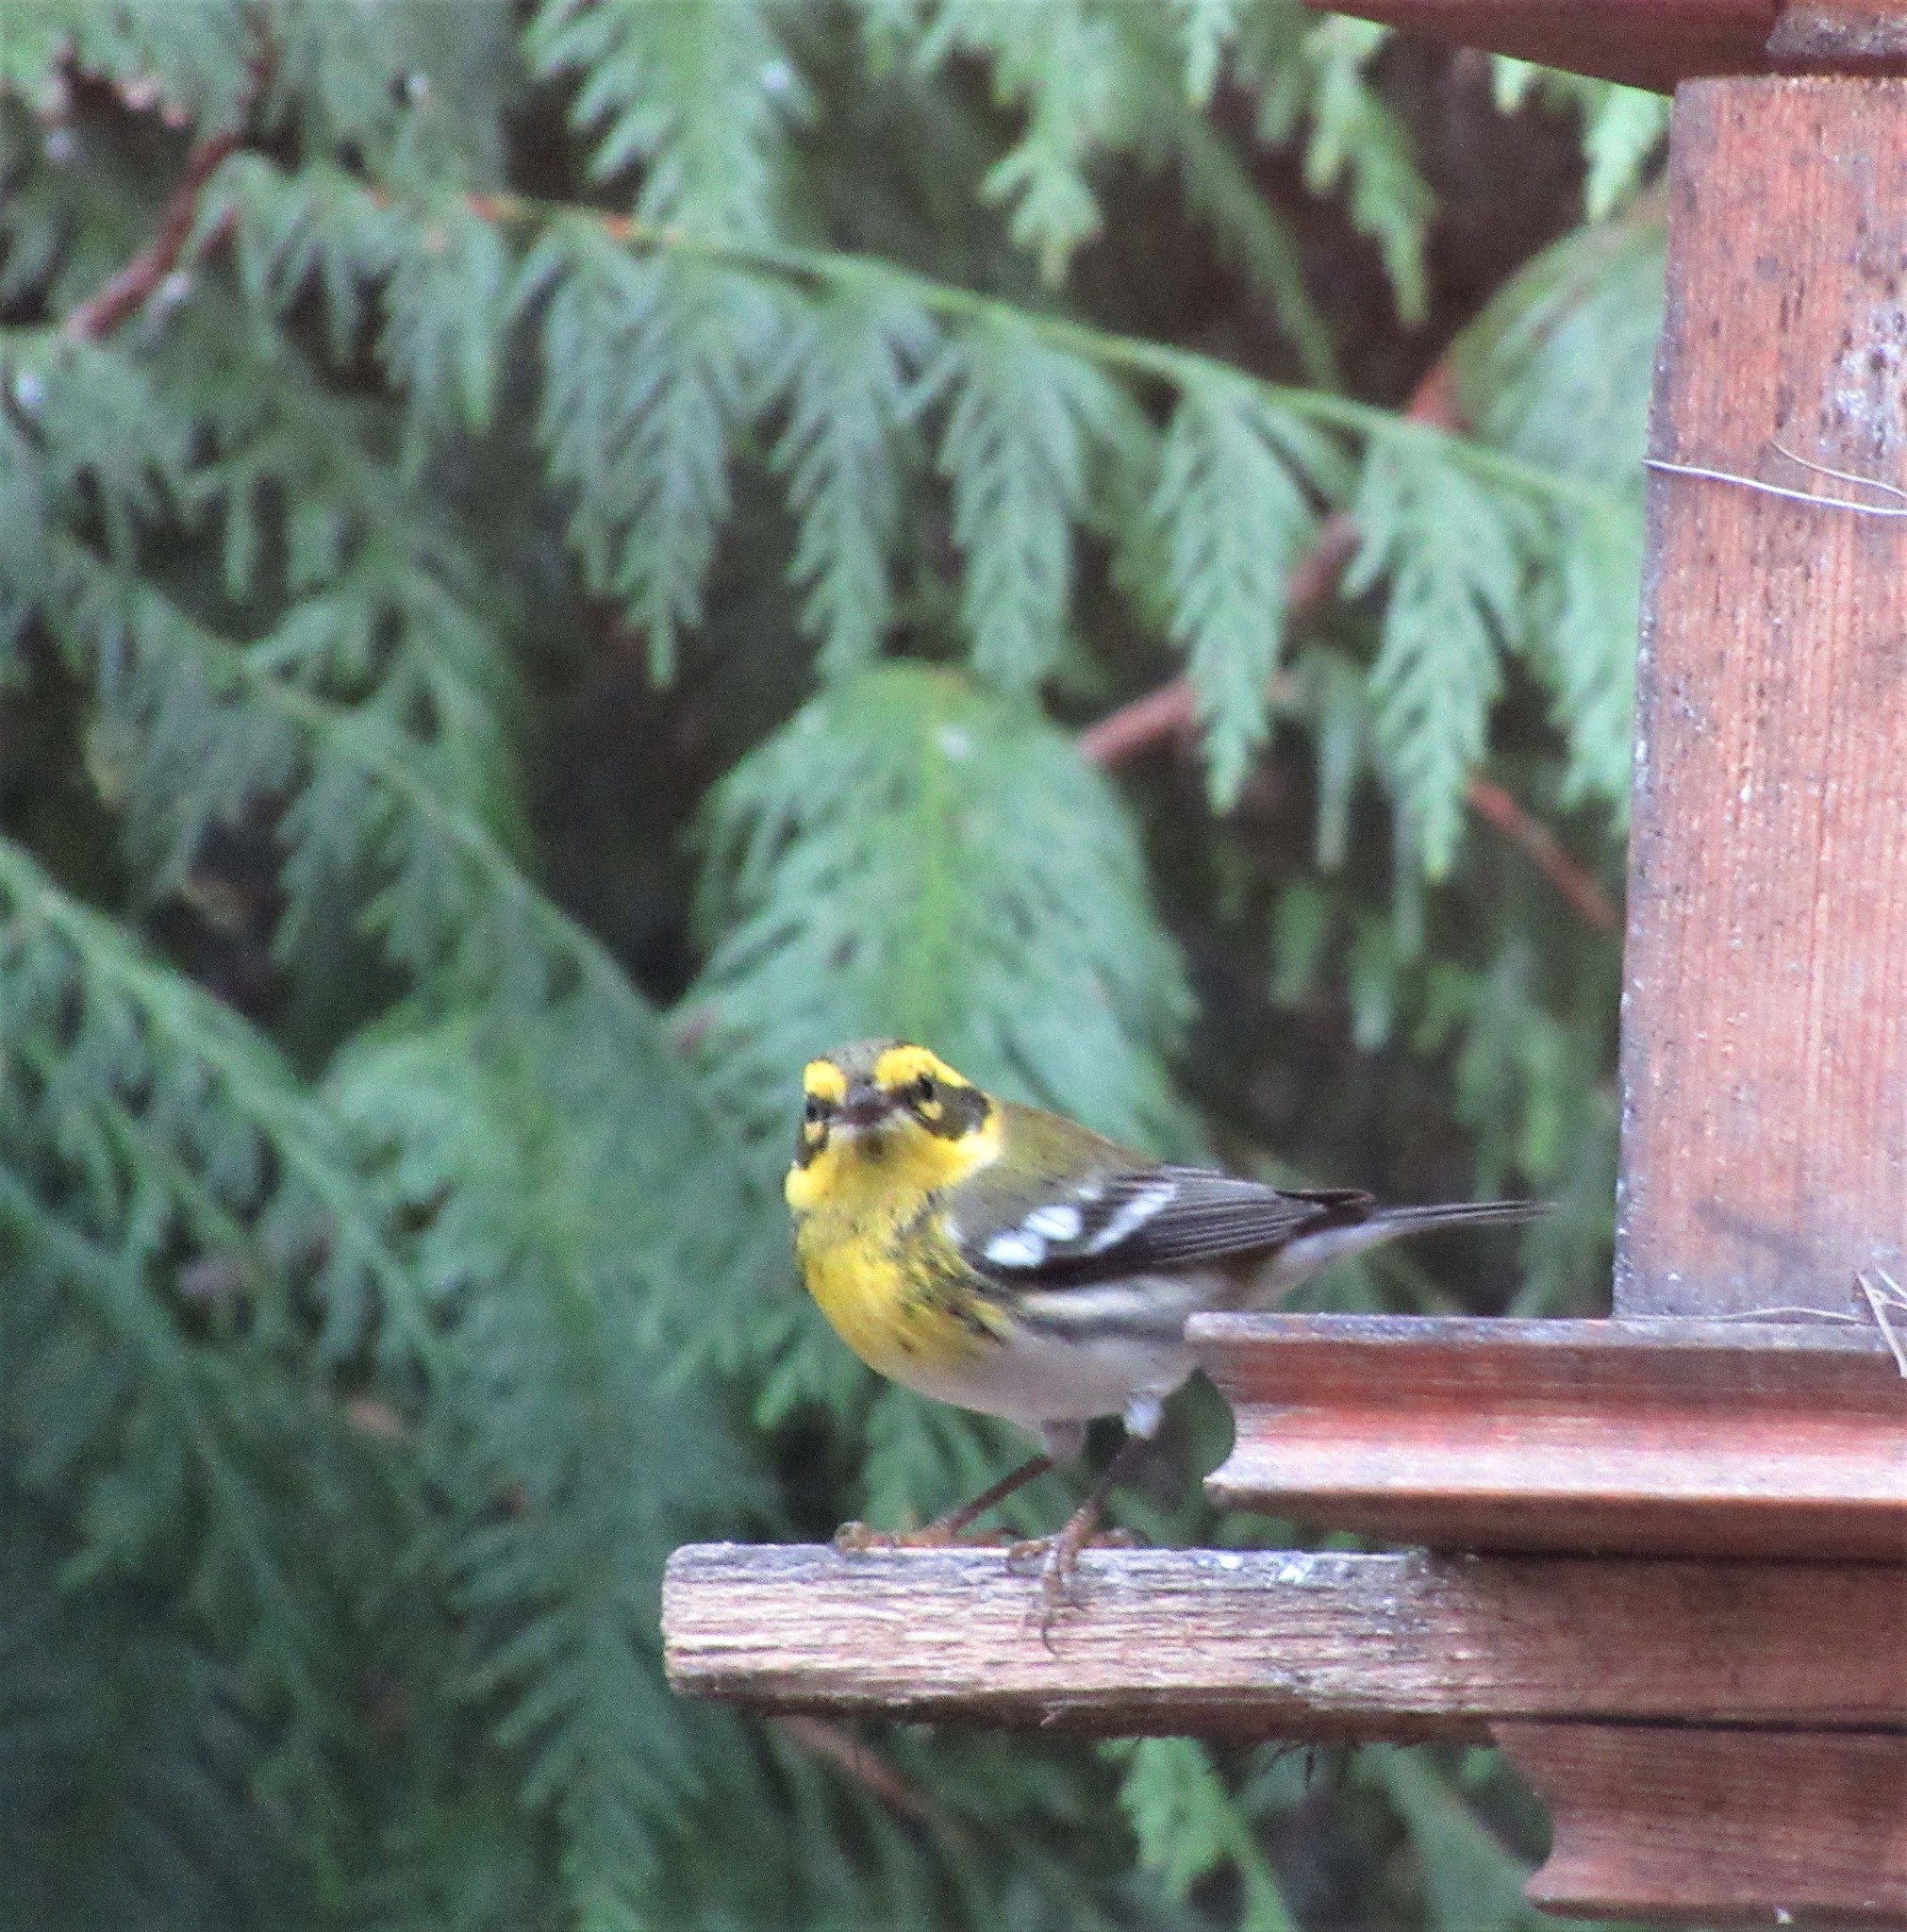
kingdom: Animalia
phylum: Chordata
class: Aves
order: Passeriformes
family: Parulidae
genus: Setophaga
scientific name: Setophaga townsendi
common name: Townsend's warbler
